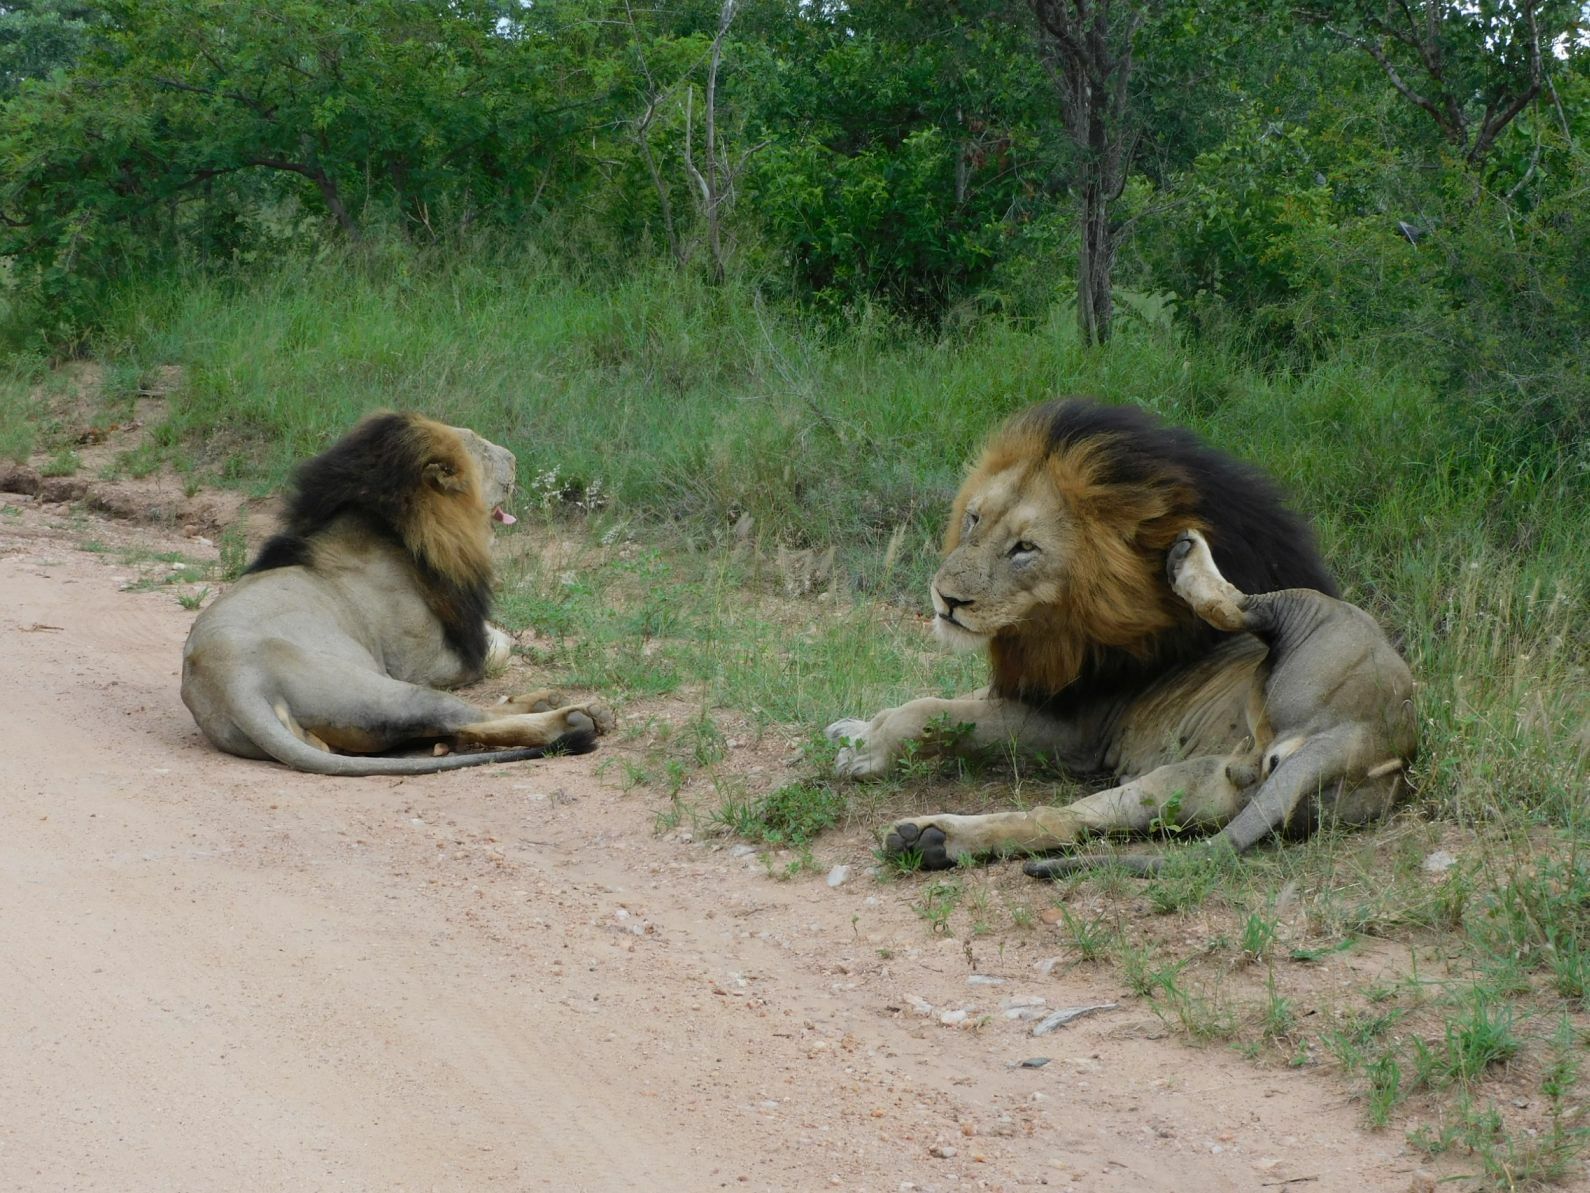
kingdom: Animalia
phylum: Chordata
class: Mammalia
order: Carnivora
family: Felidae
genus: Panthera
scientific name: Panthera leo
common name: Lion
